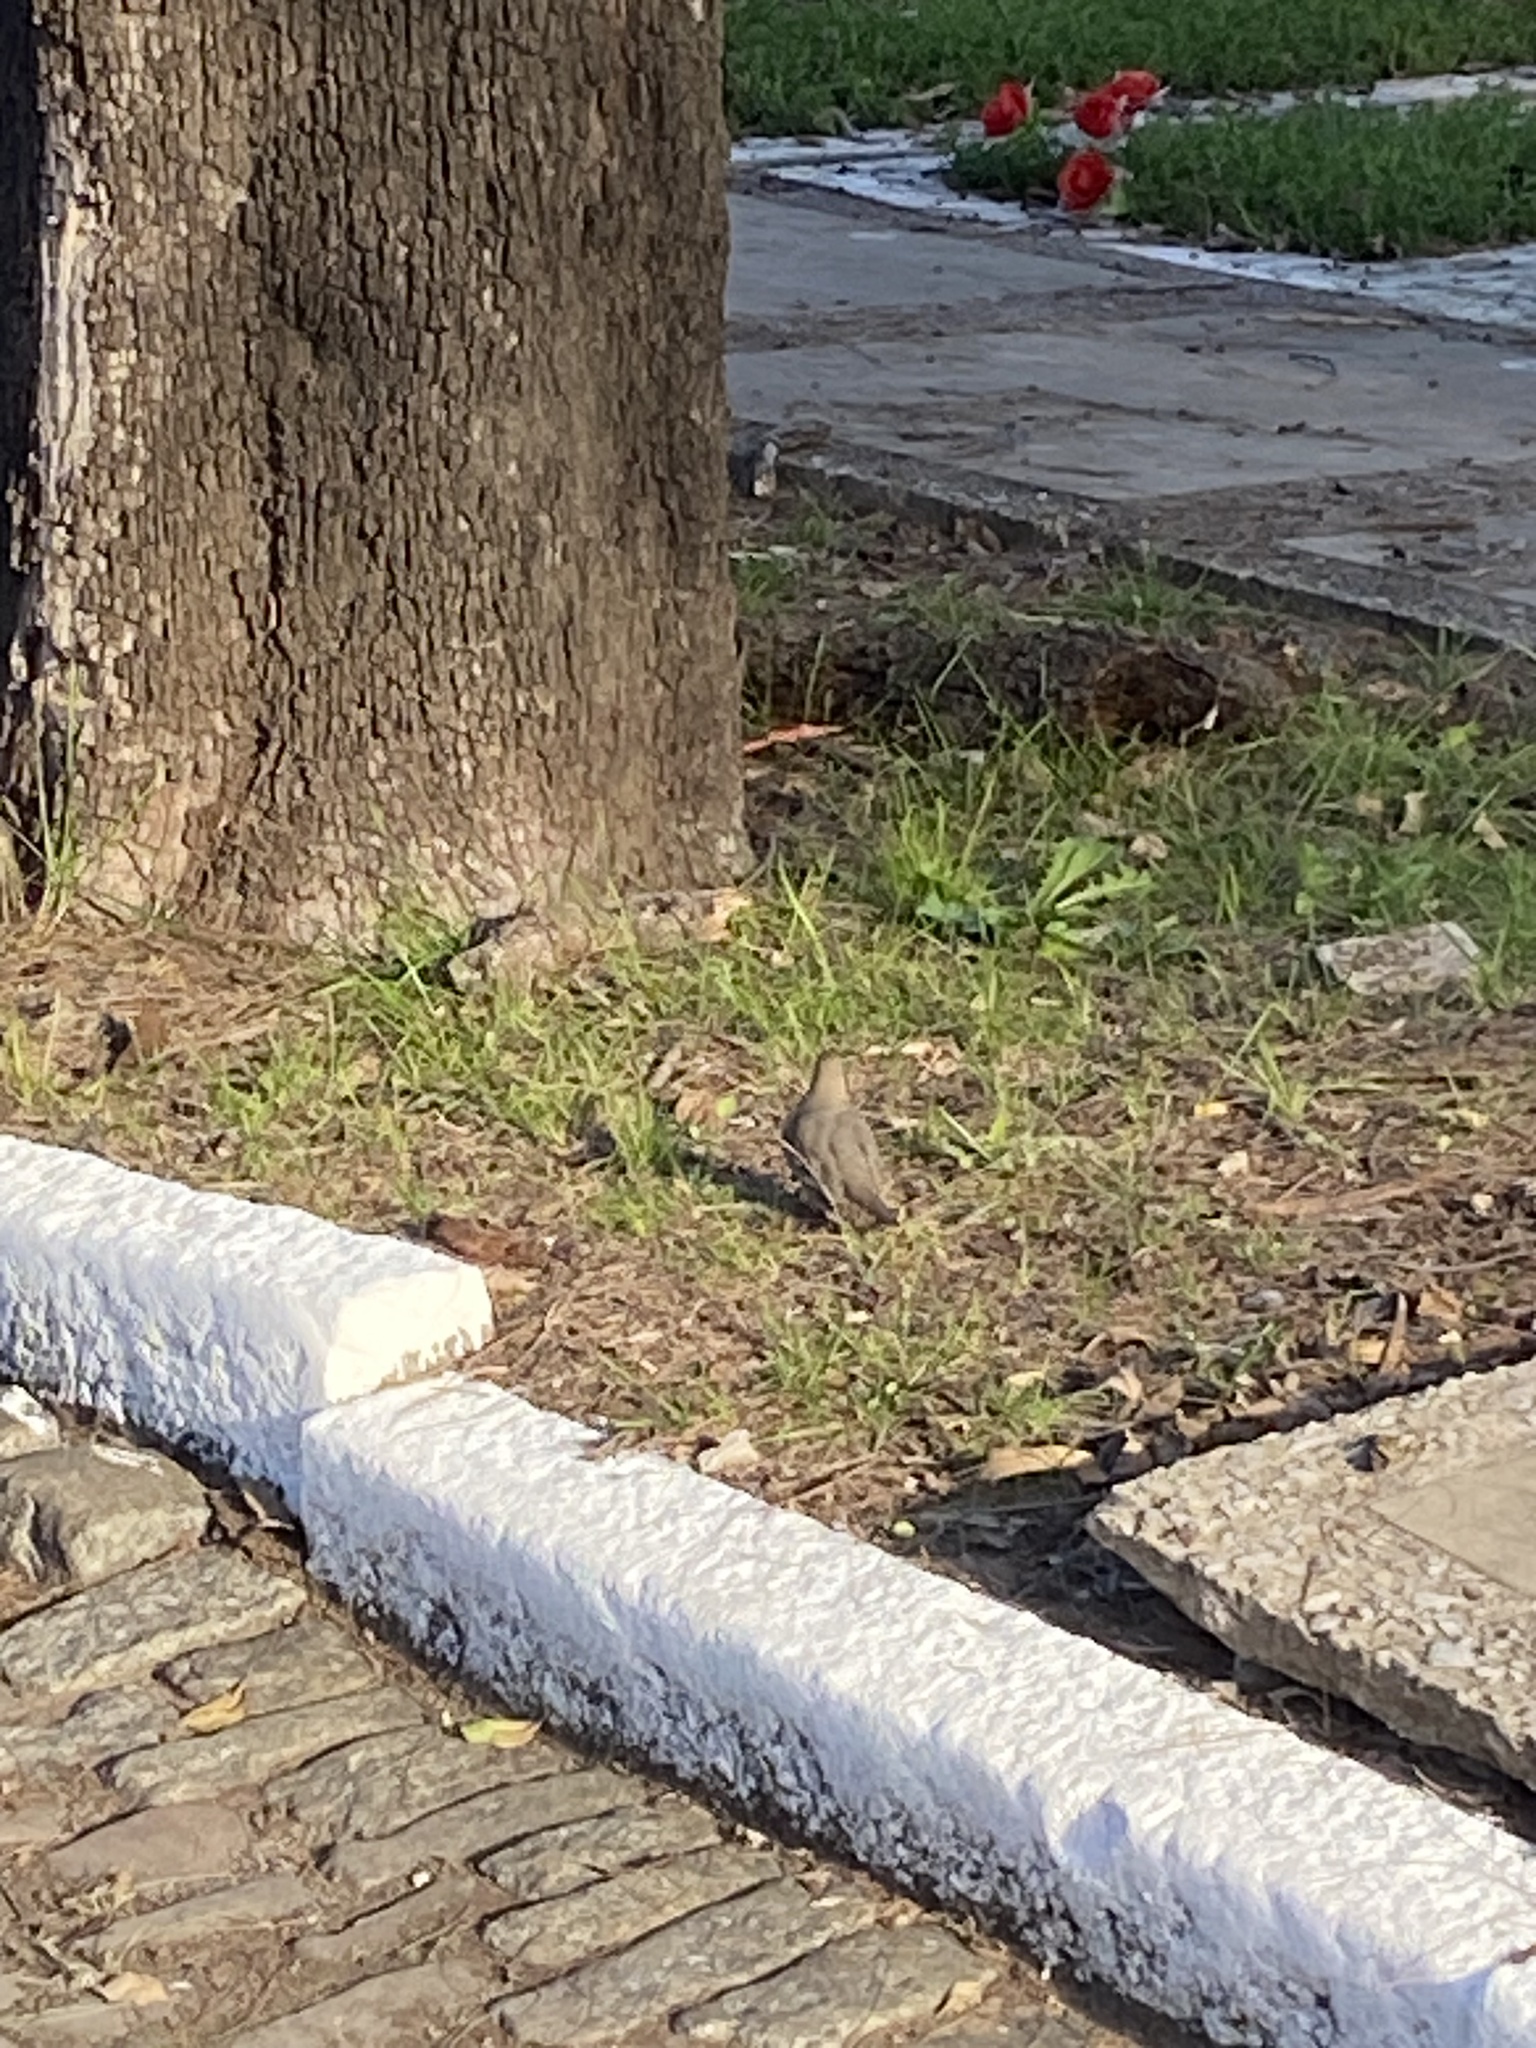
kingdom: Animalia
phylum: Chordata
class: Aves
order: Columbiformes
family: Columbidae
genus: Columbina
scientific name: Columbina picui
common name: Picui ground dove
